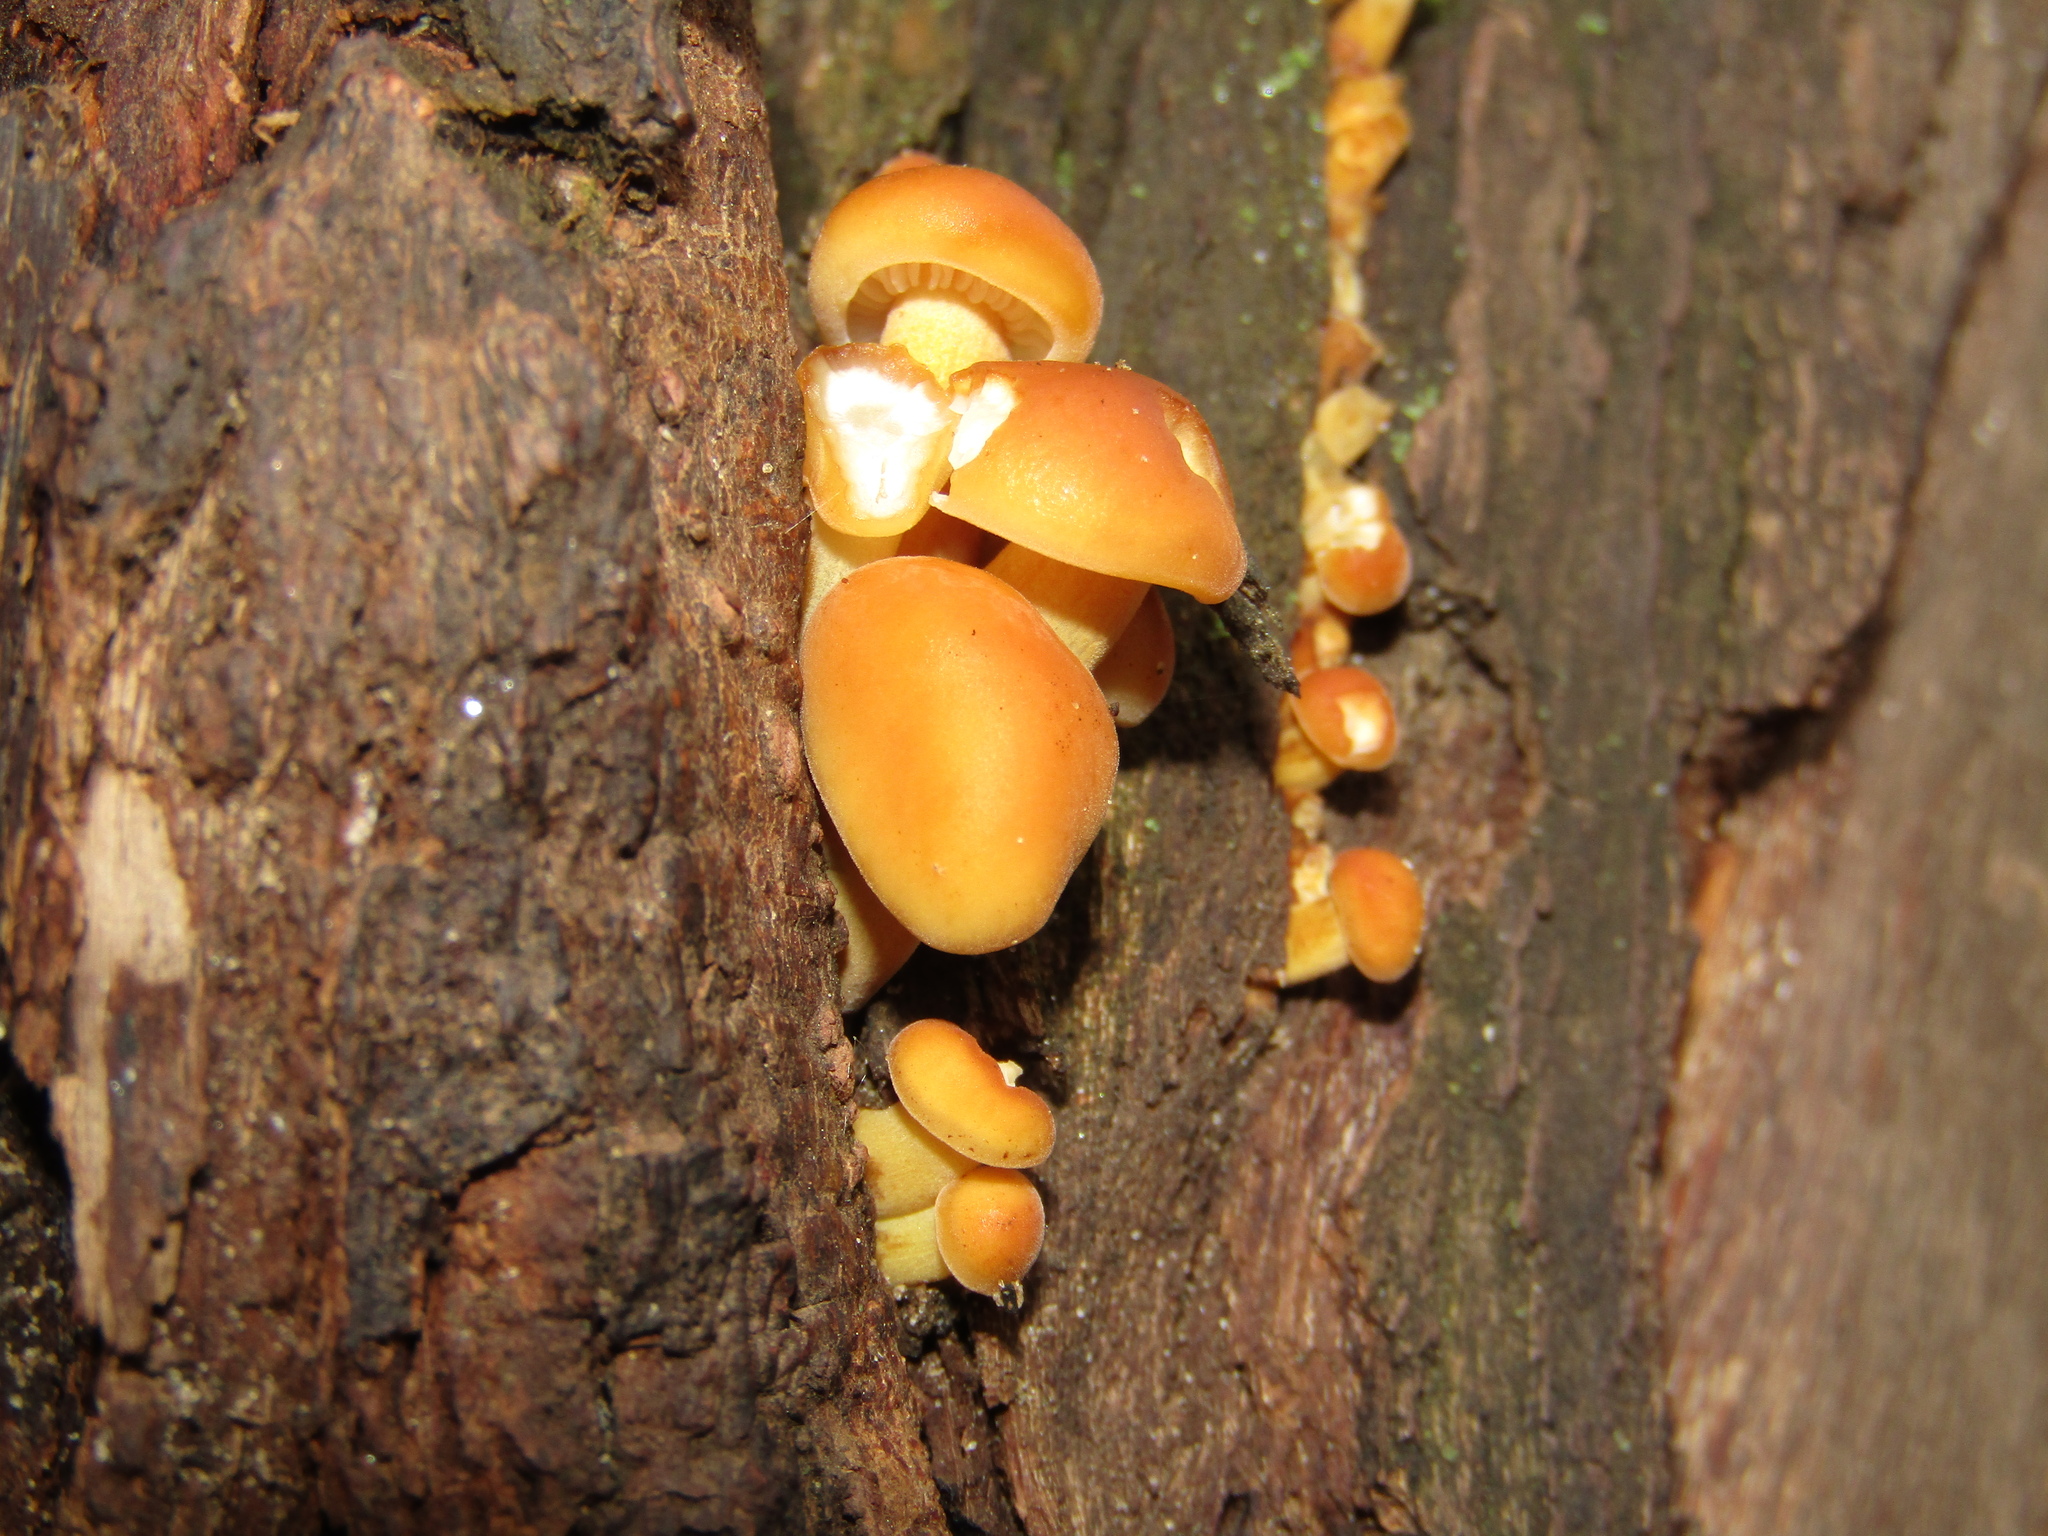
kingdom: Fungi
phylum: Basidiomycota
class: Agaricomycetes
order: Agaricales
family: Physalacriaceae
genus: Flammulina
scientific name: Flammulina
